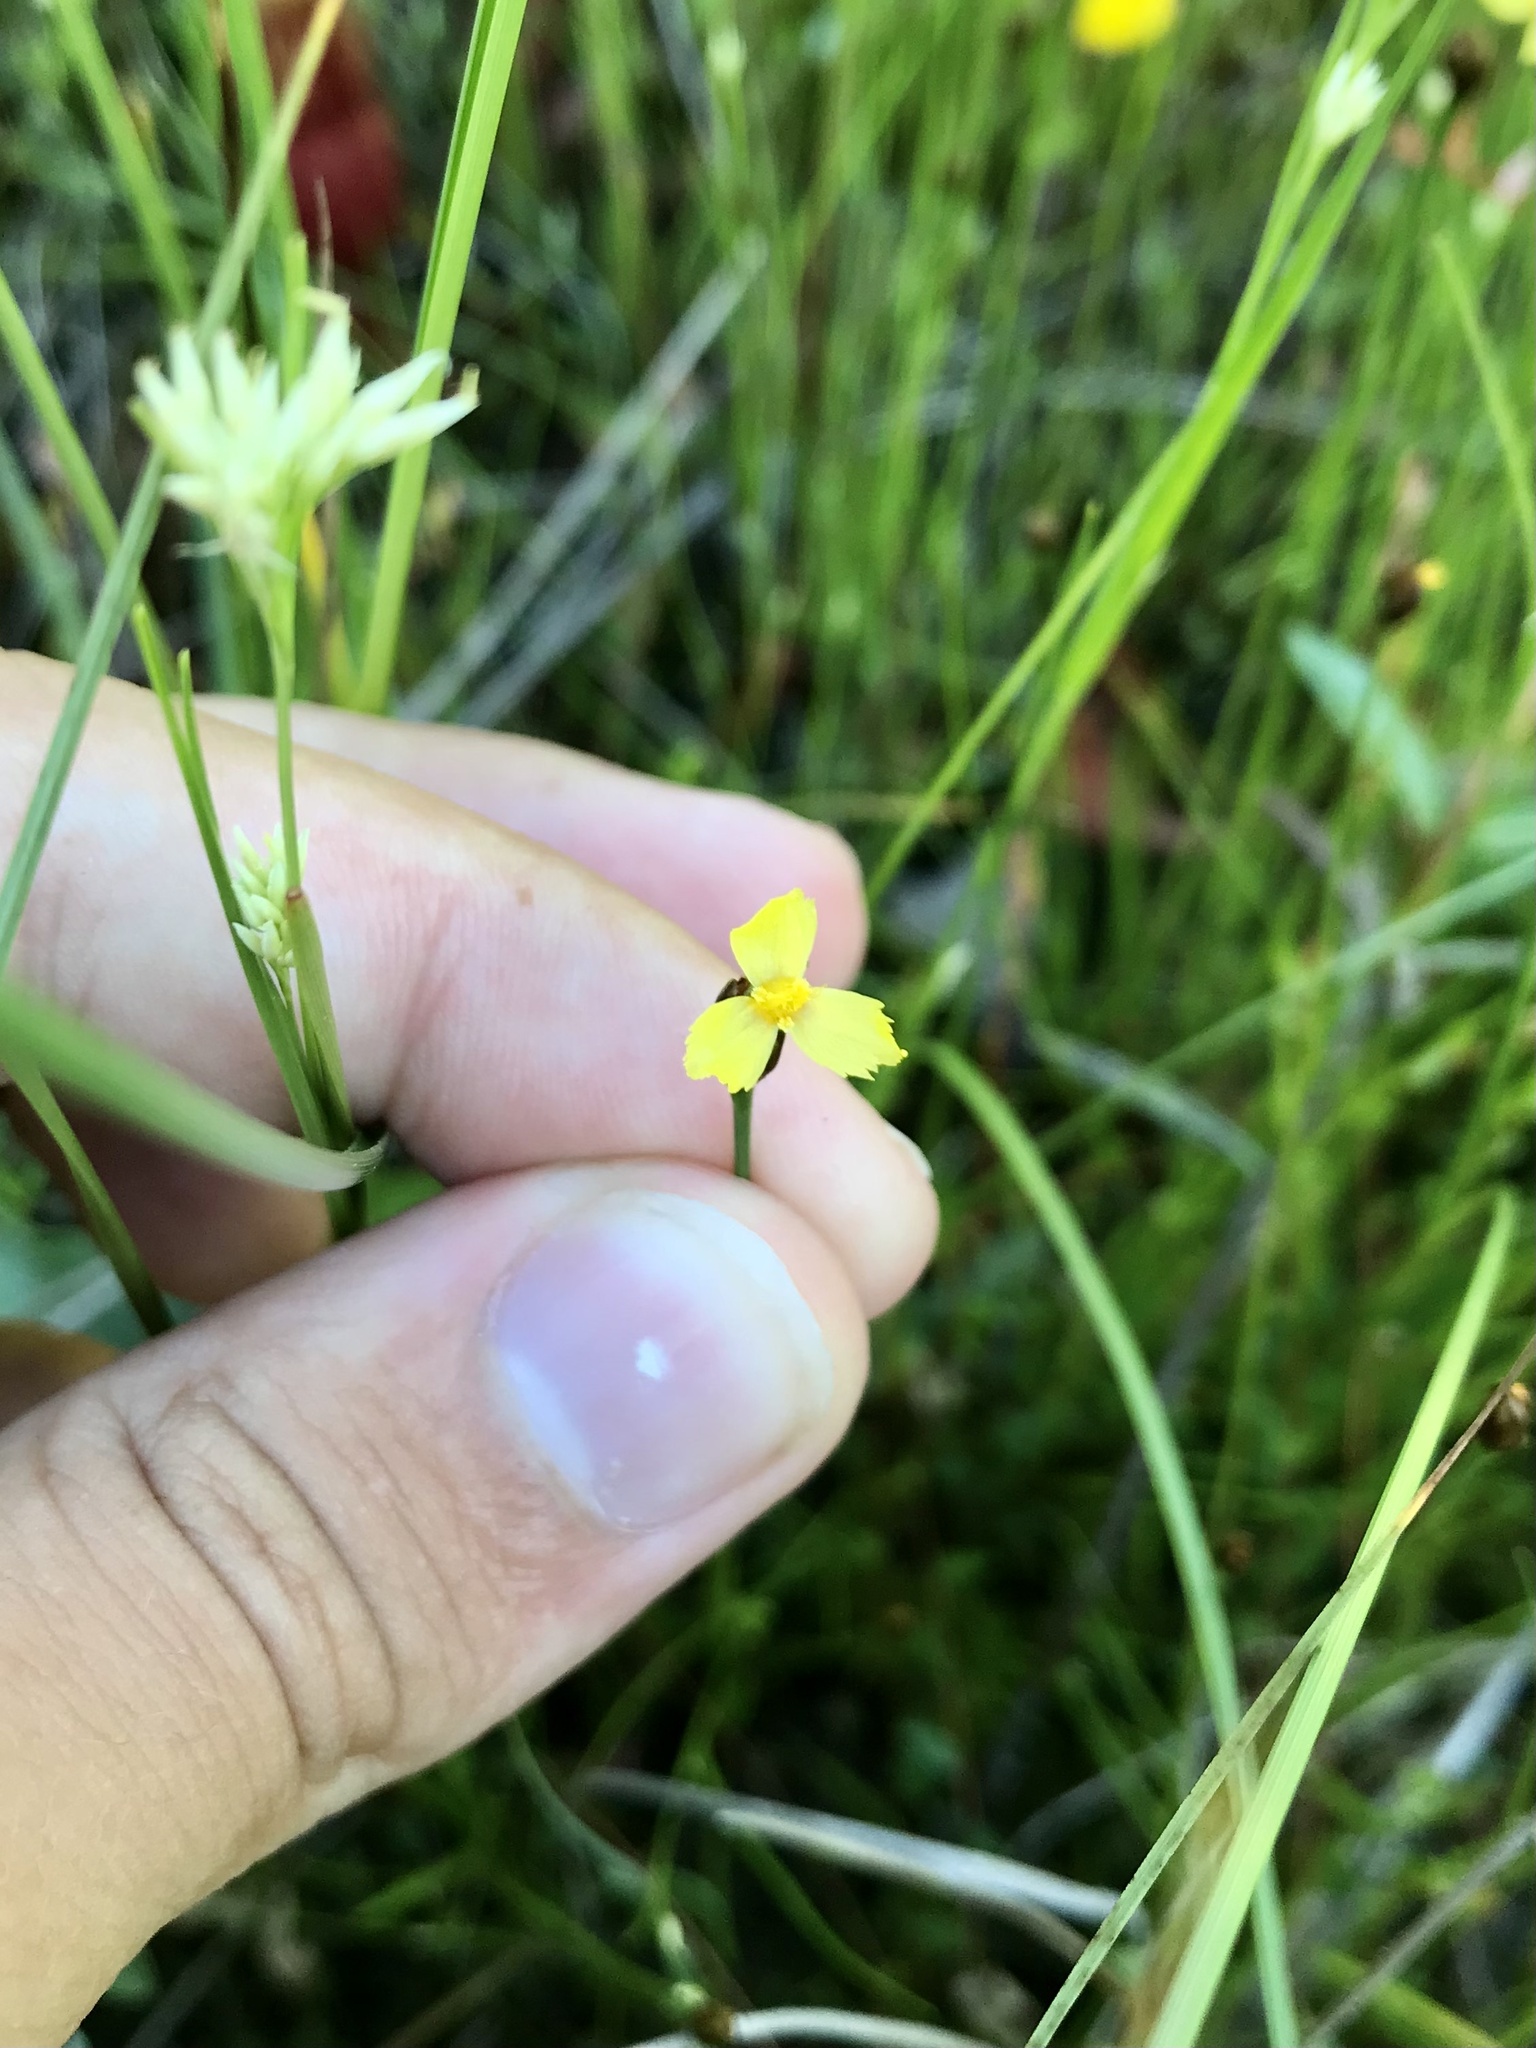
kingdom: Plantae
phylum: Tracheophyta
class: Liliopsida
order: Poales
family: Xyridaceae
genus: Xyris
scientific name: Xyris montana
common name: Northern yellow-eyed-grass
